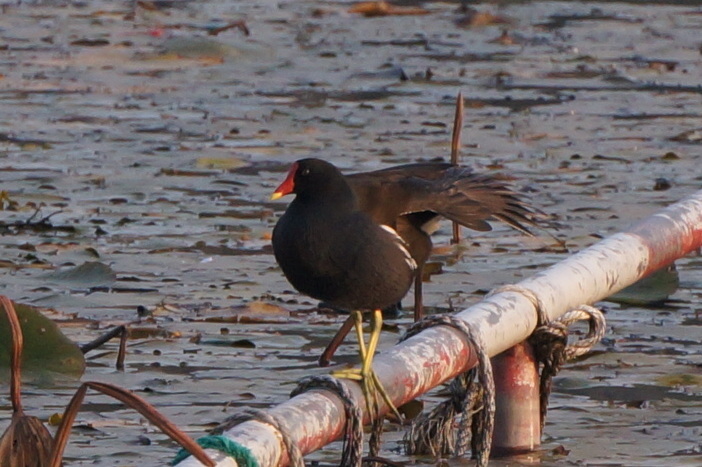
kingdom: Animalia
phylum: Chordata
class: Aves
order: Gruiformes
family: Rallidae
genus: Gallinula
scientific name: Gallinula chloropus
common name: Common moorhen
